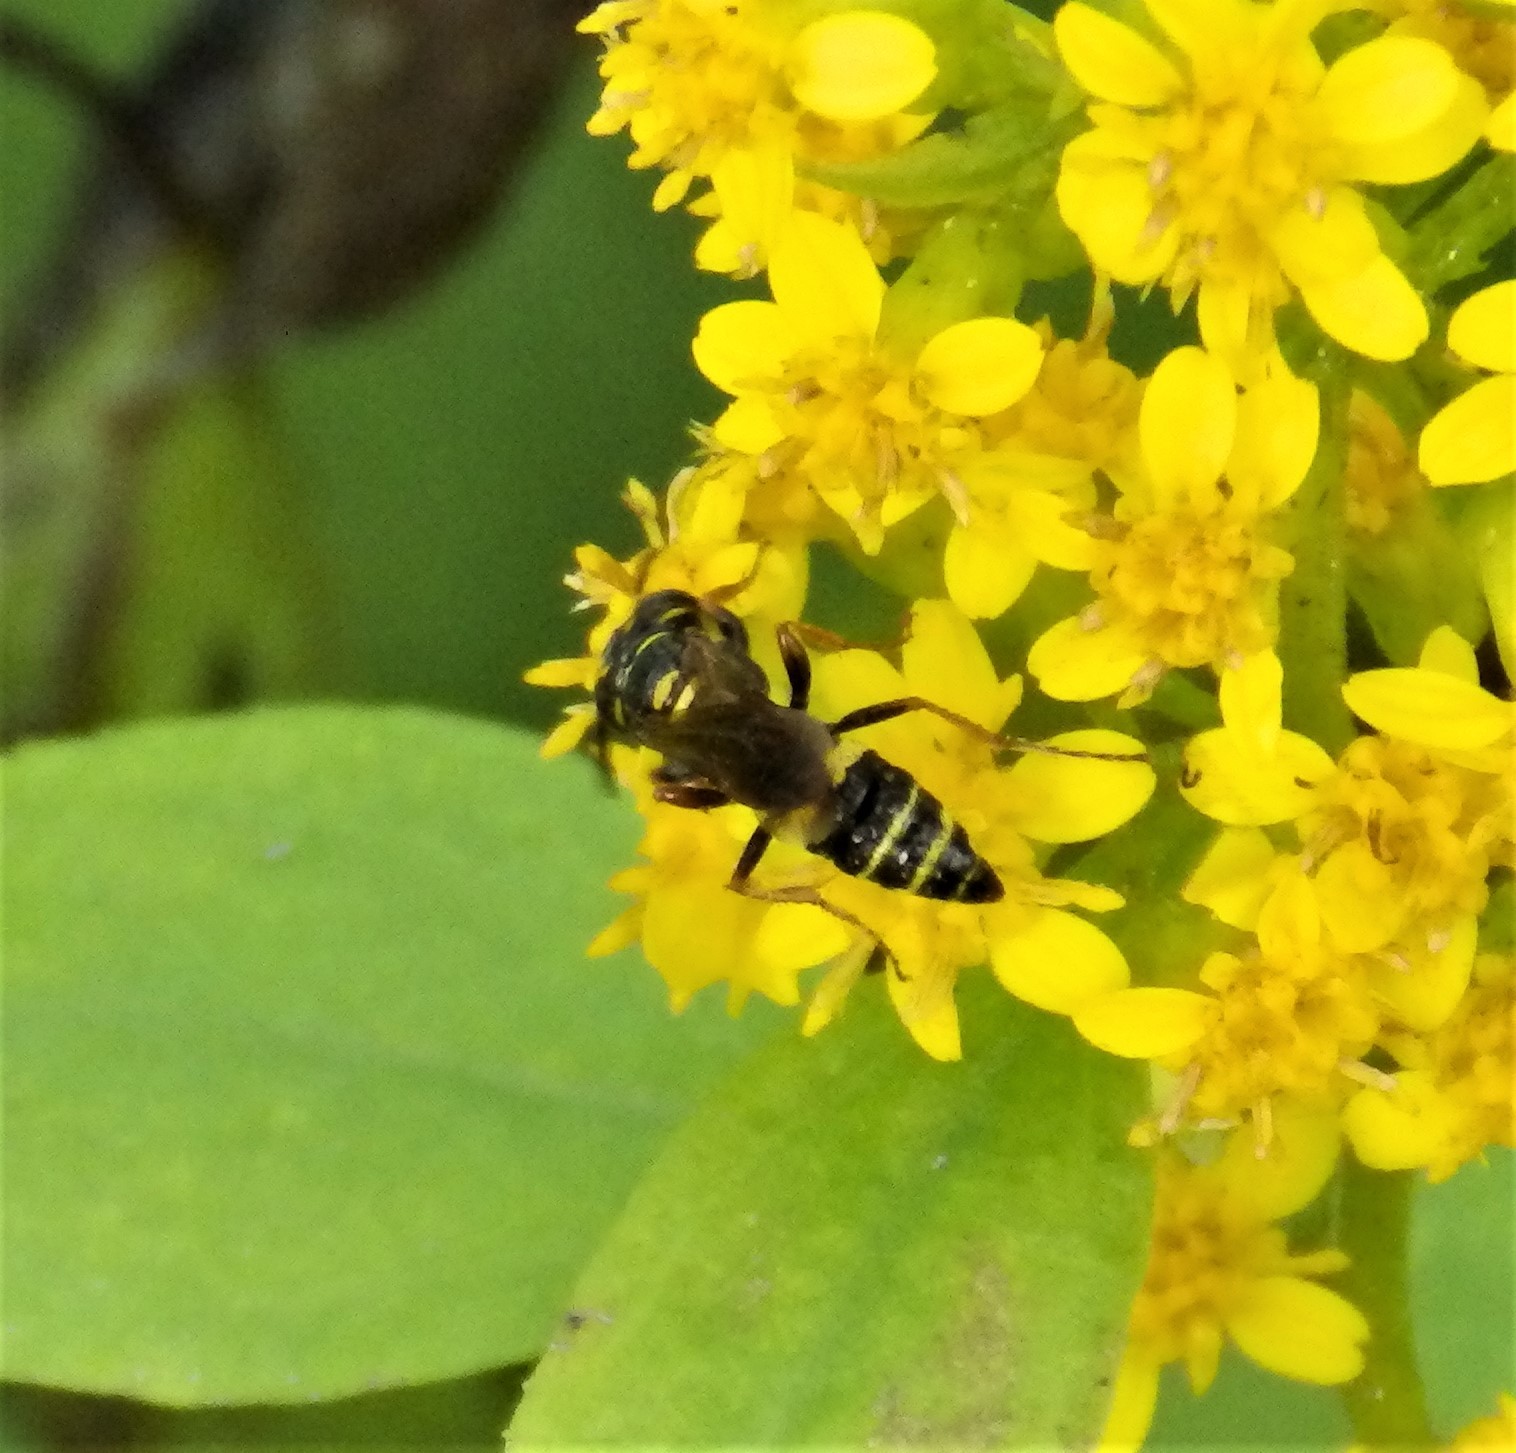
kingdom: Animalia
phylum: Arthropoda
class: Insecta
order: Hymenoptera
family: Crabronidae
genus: Philanthus
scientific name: Philanthus gibbosus
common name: Humped beewolf
